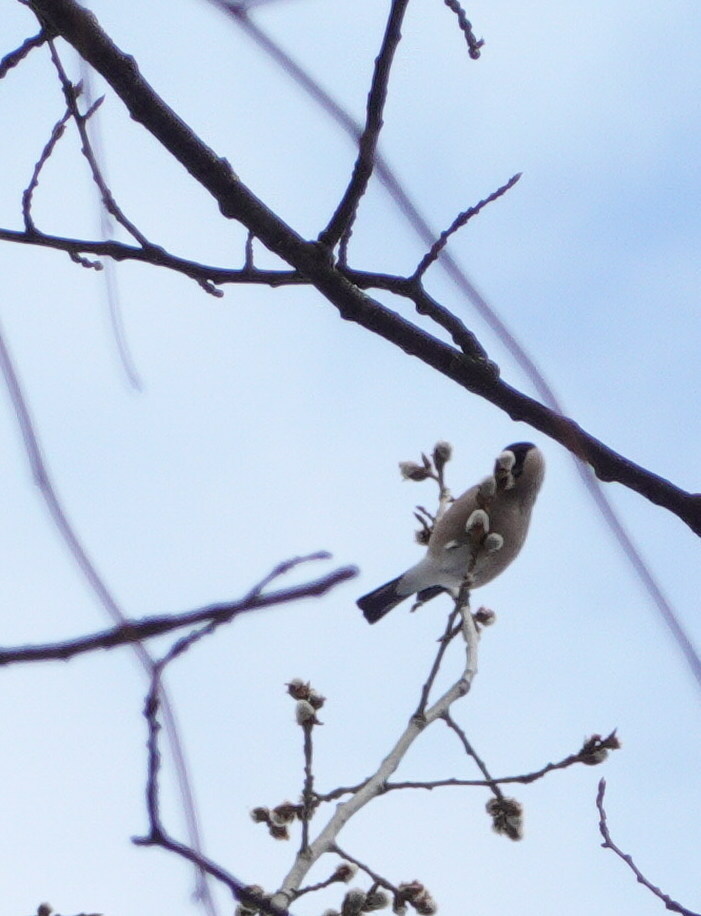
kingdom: Animalia
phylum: Chordata
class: Aves
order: Passeriformes
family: Fringillidae
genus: Pyrrhula
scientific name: Pyrrhula pyrrhula
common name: Eurasian bullfinch
